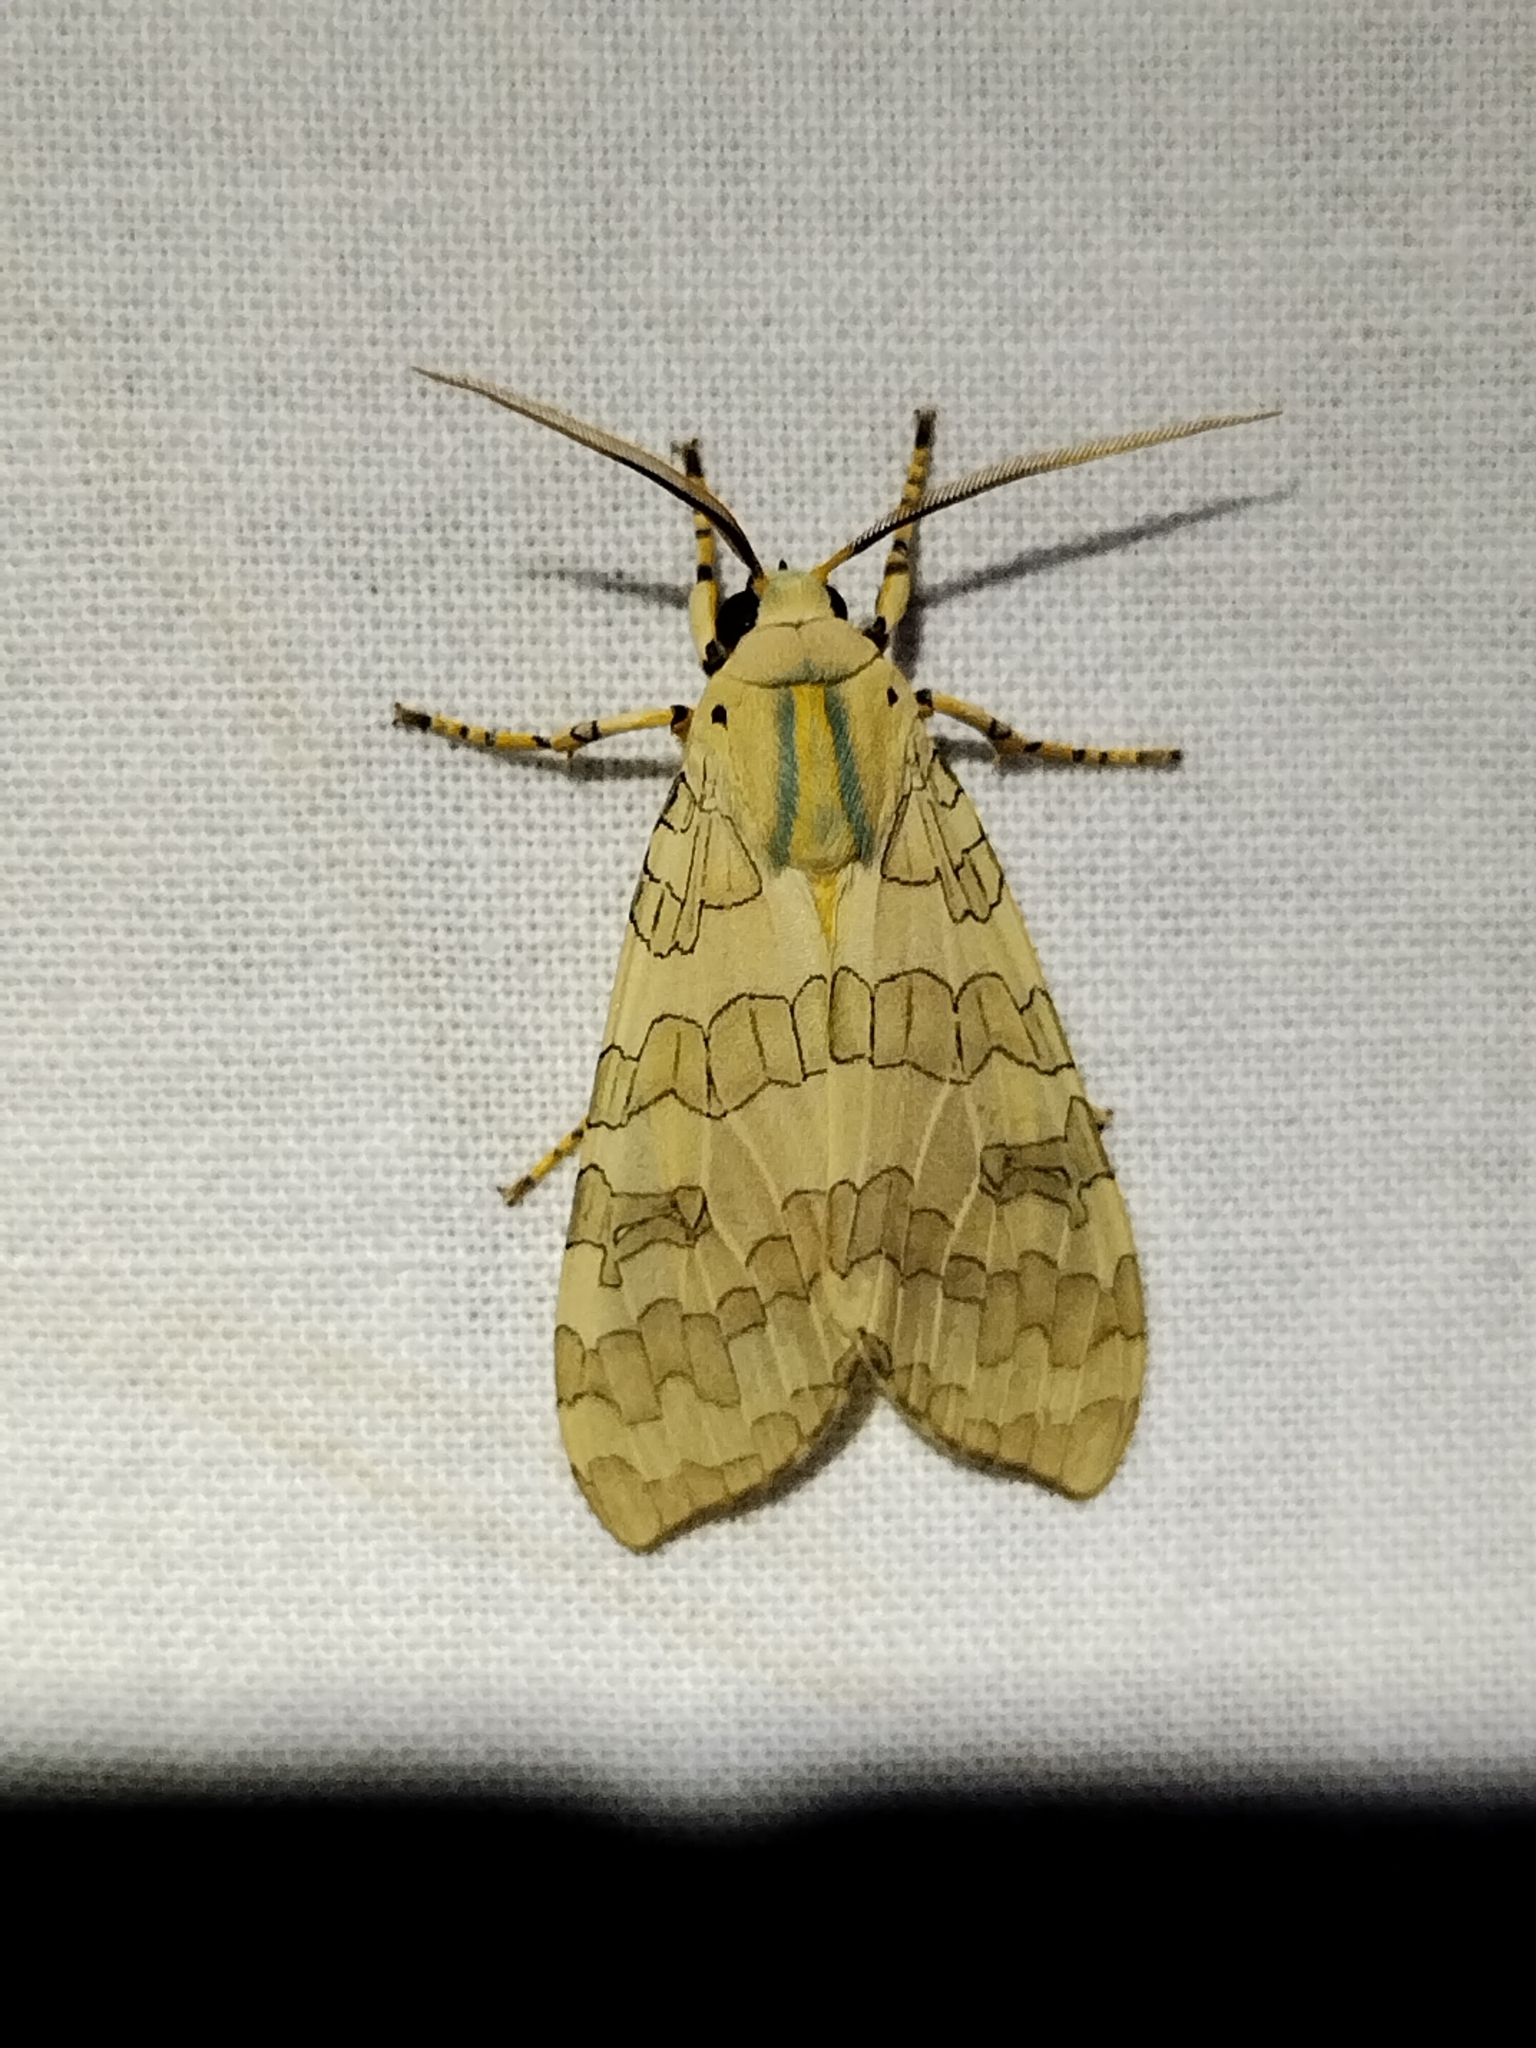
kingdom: Animalia
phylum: Arthropoda
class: Insecta
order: Lepidoptera
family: Erebidae
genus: Halysidota
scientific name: Halysidota
